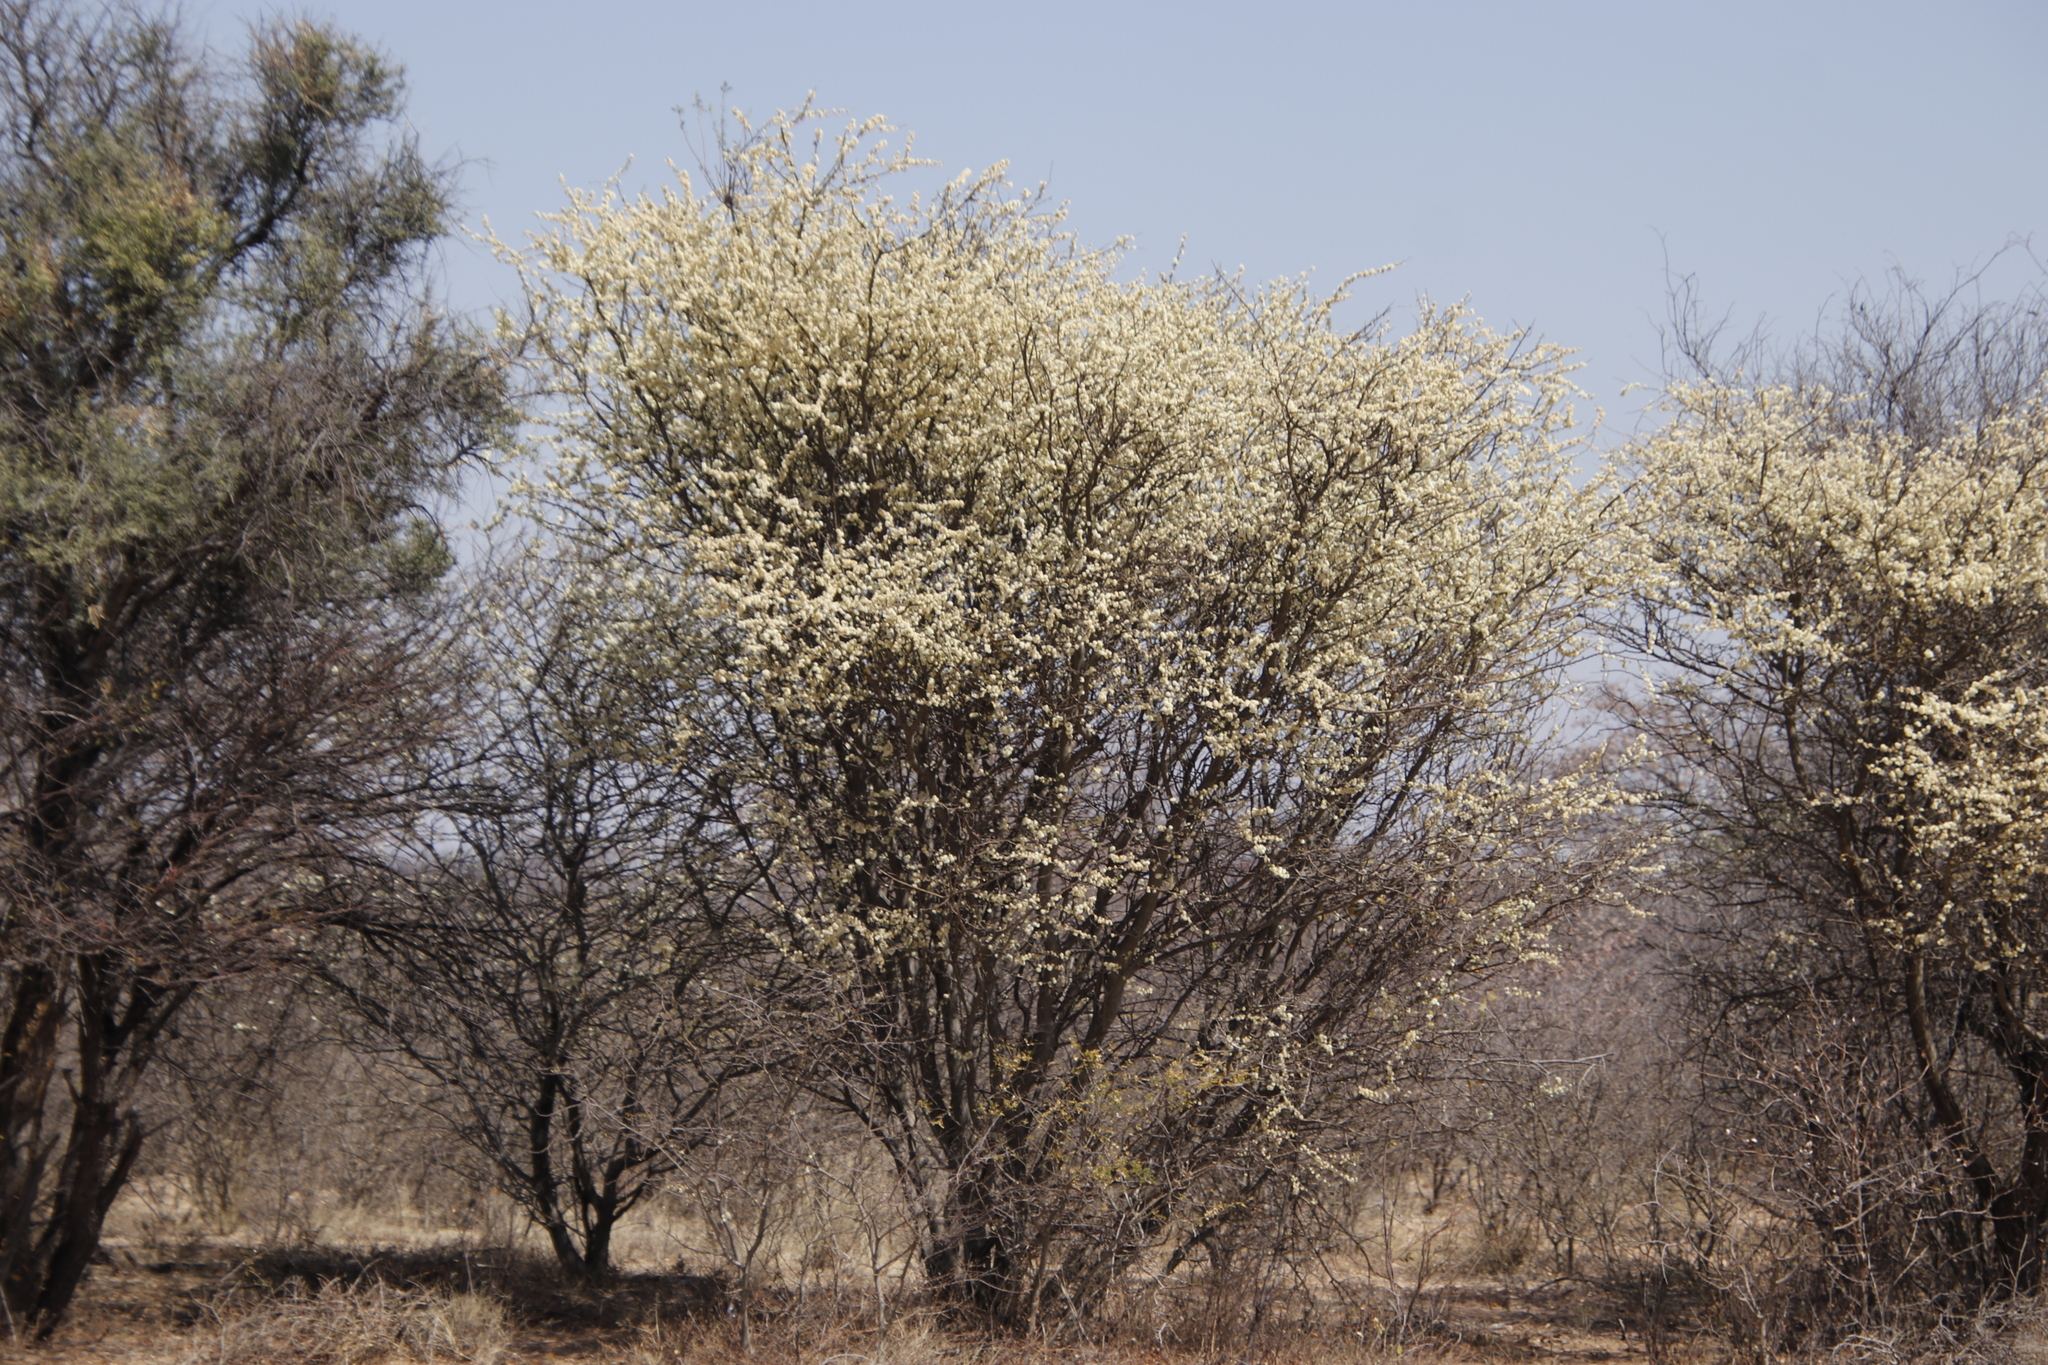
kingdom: Plantae
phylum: Tracheophyta
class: Magnoliopsida
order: Fabales
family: Fabaceae
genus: Senegalia
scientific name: Senegalia mellifera
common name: Hookthorn
